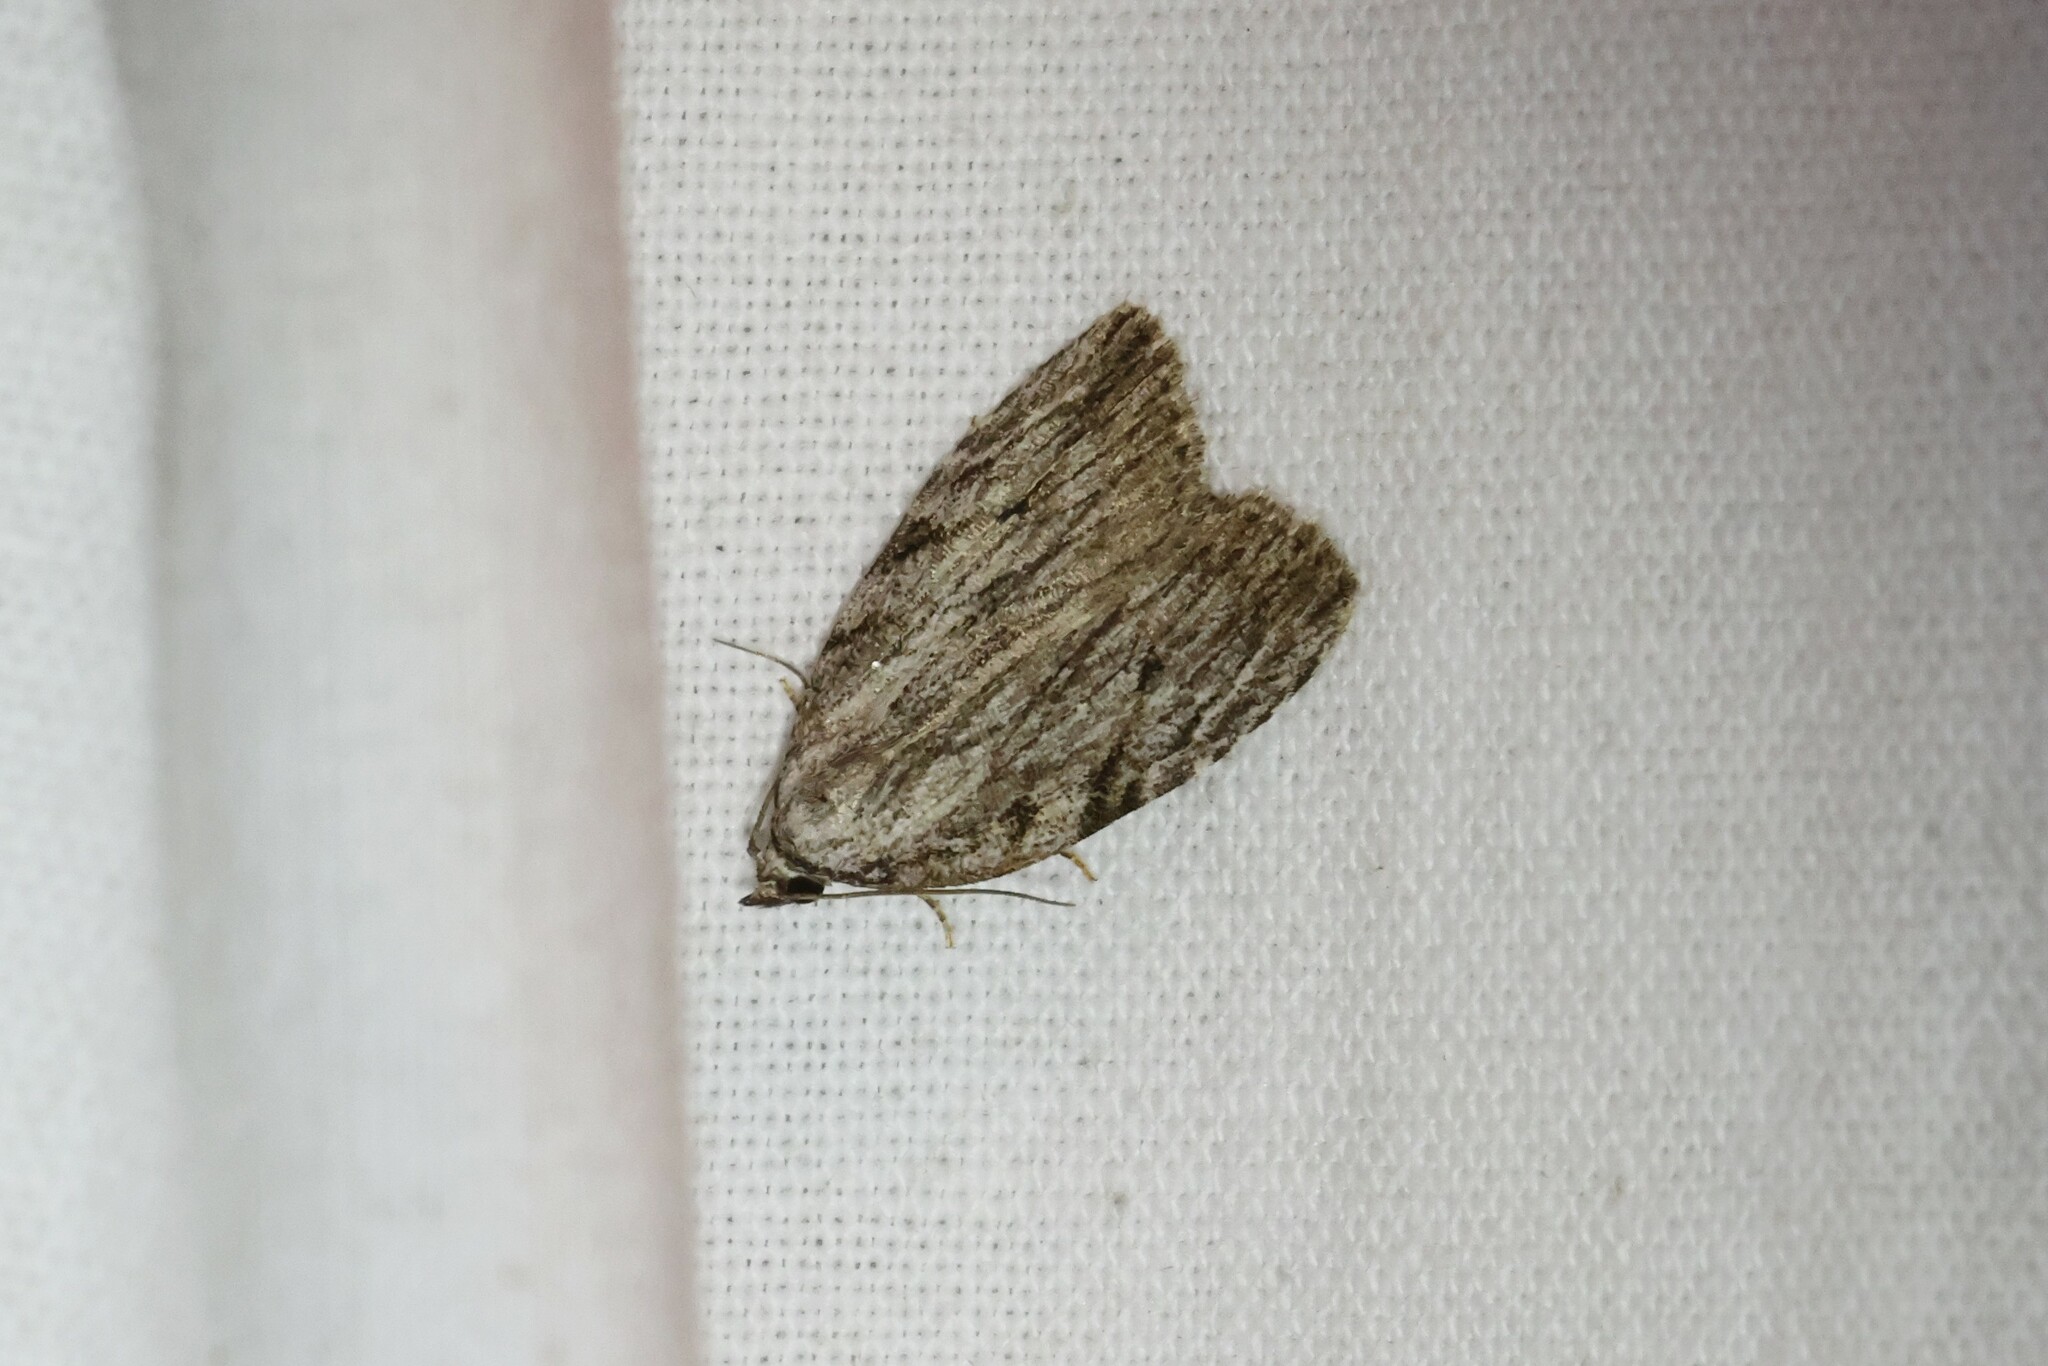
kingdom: Animalia
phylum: Arthropoda
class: Insecta
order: Lepidoptera
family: Noctuidae
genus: Balsa
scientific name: Balsa tristrigella
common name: Three-lined balsa moth
